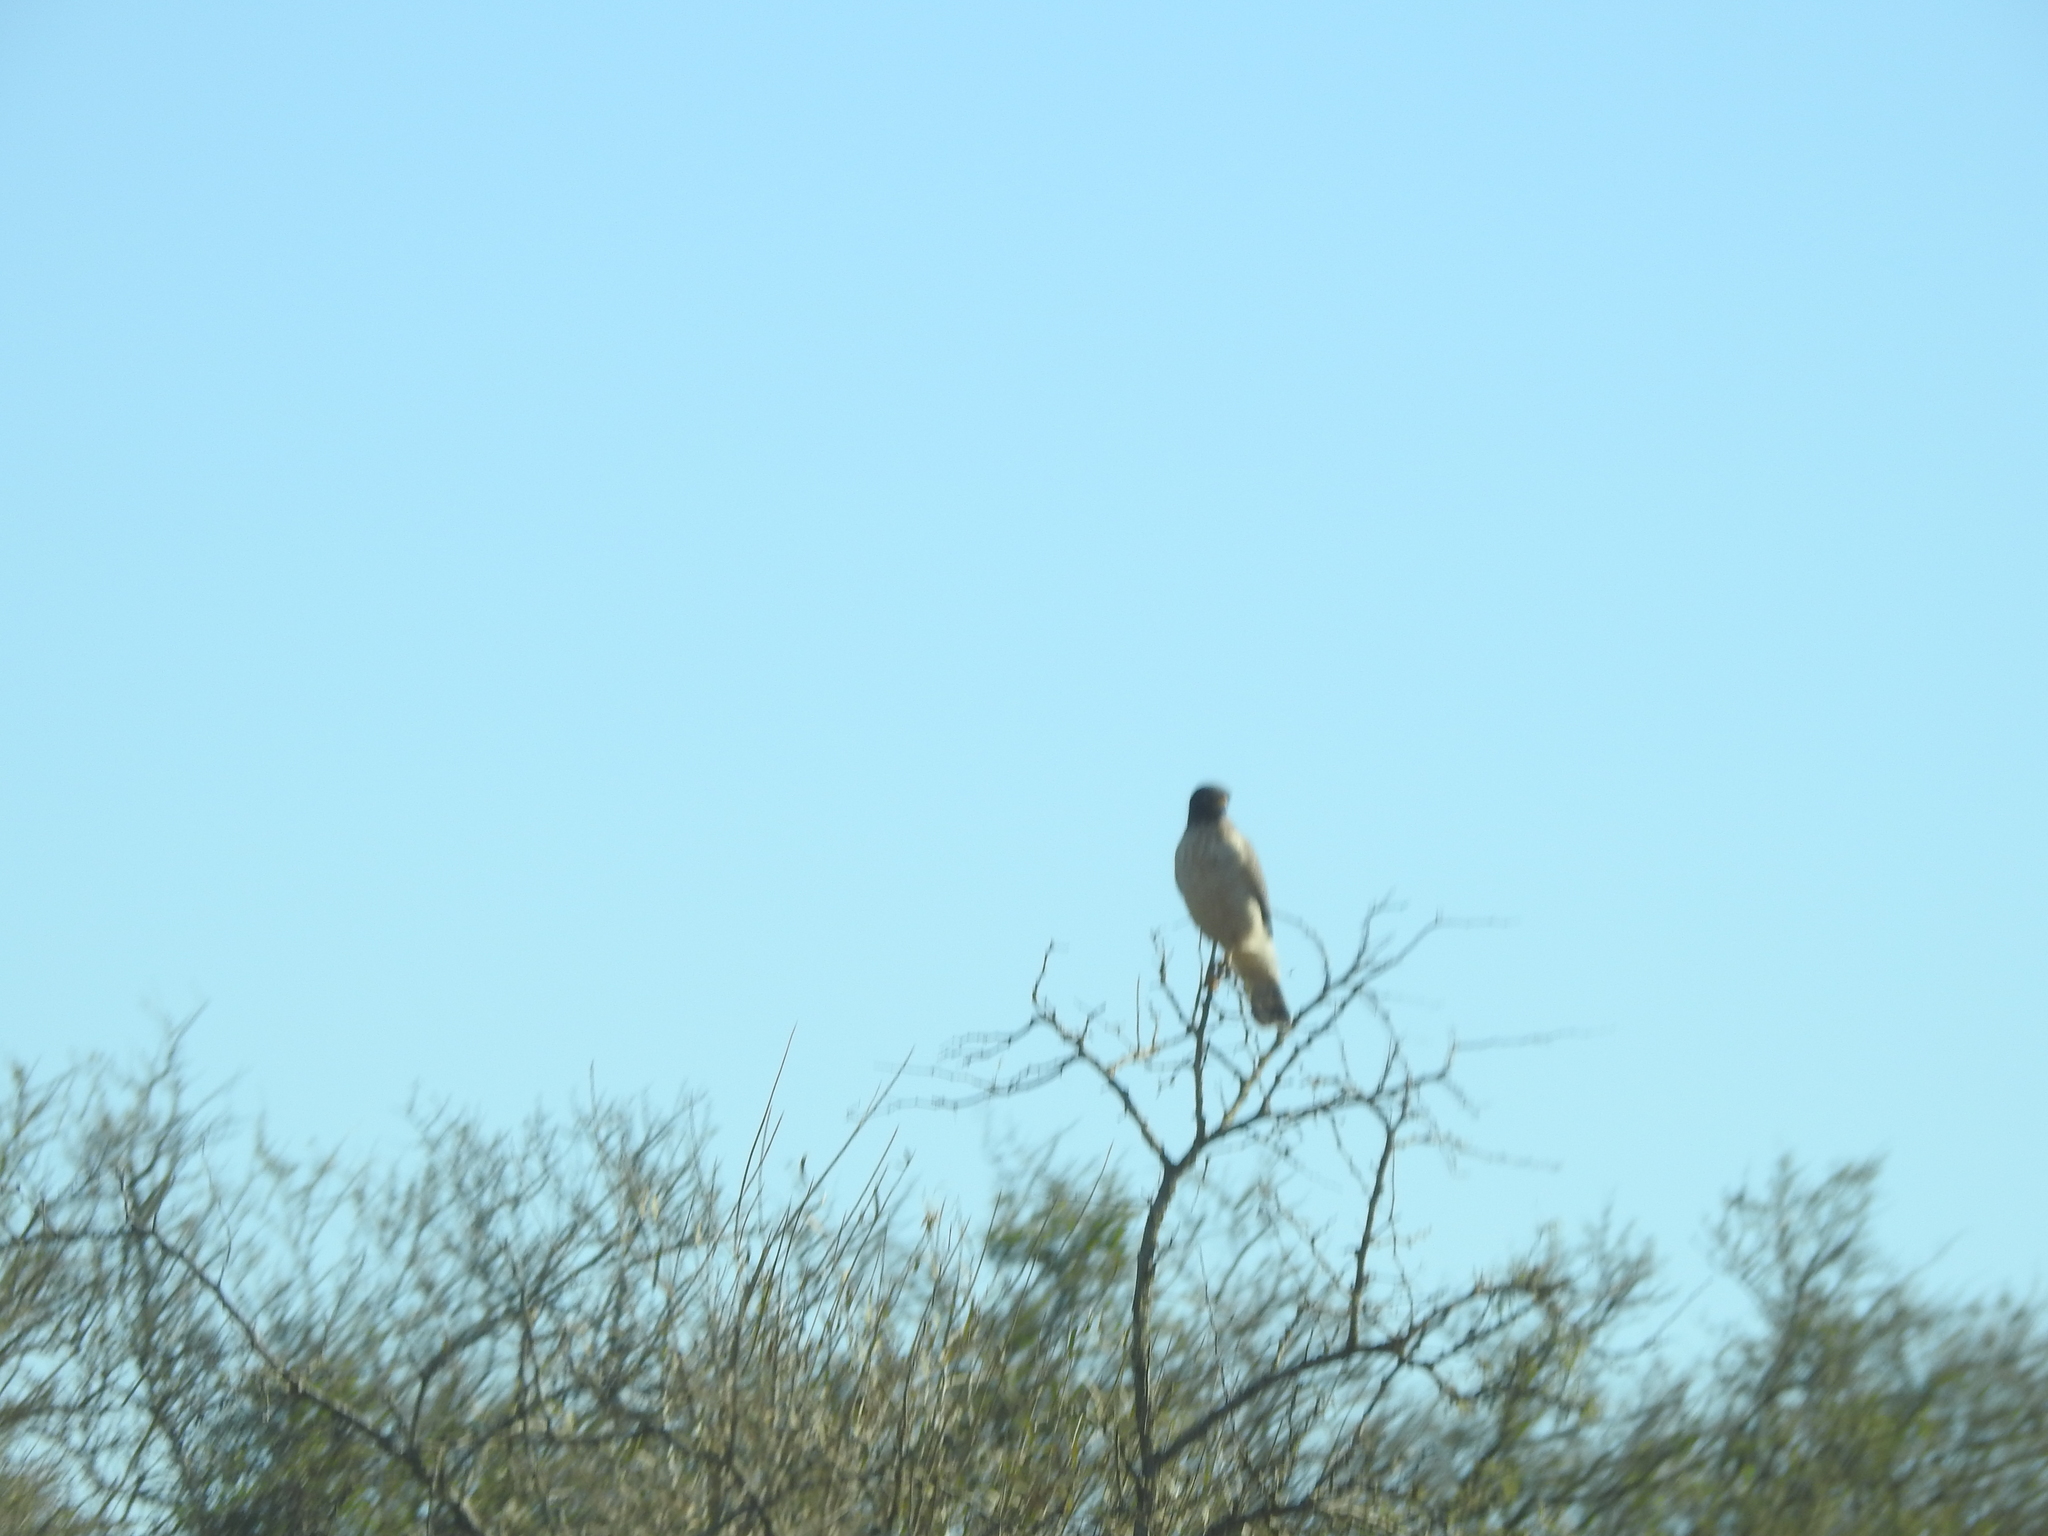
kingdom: Animalia
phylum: Chordata
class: Aves
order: Accipitriformes
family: Accipitridae
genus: Rupornis
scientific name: Rupornis magnirostris
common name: Roadside hawk
